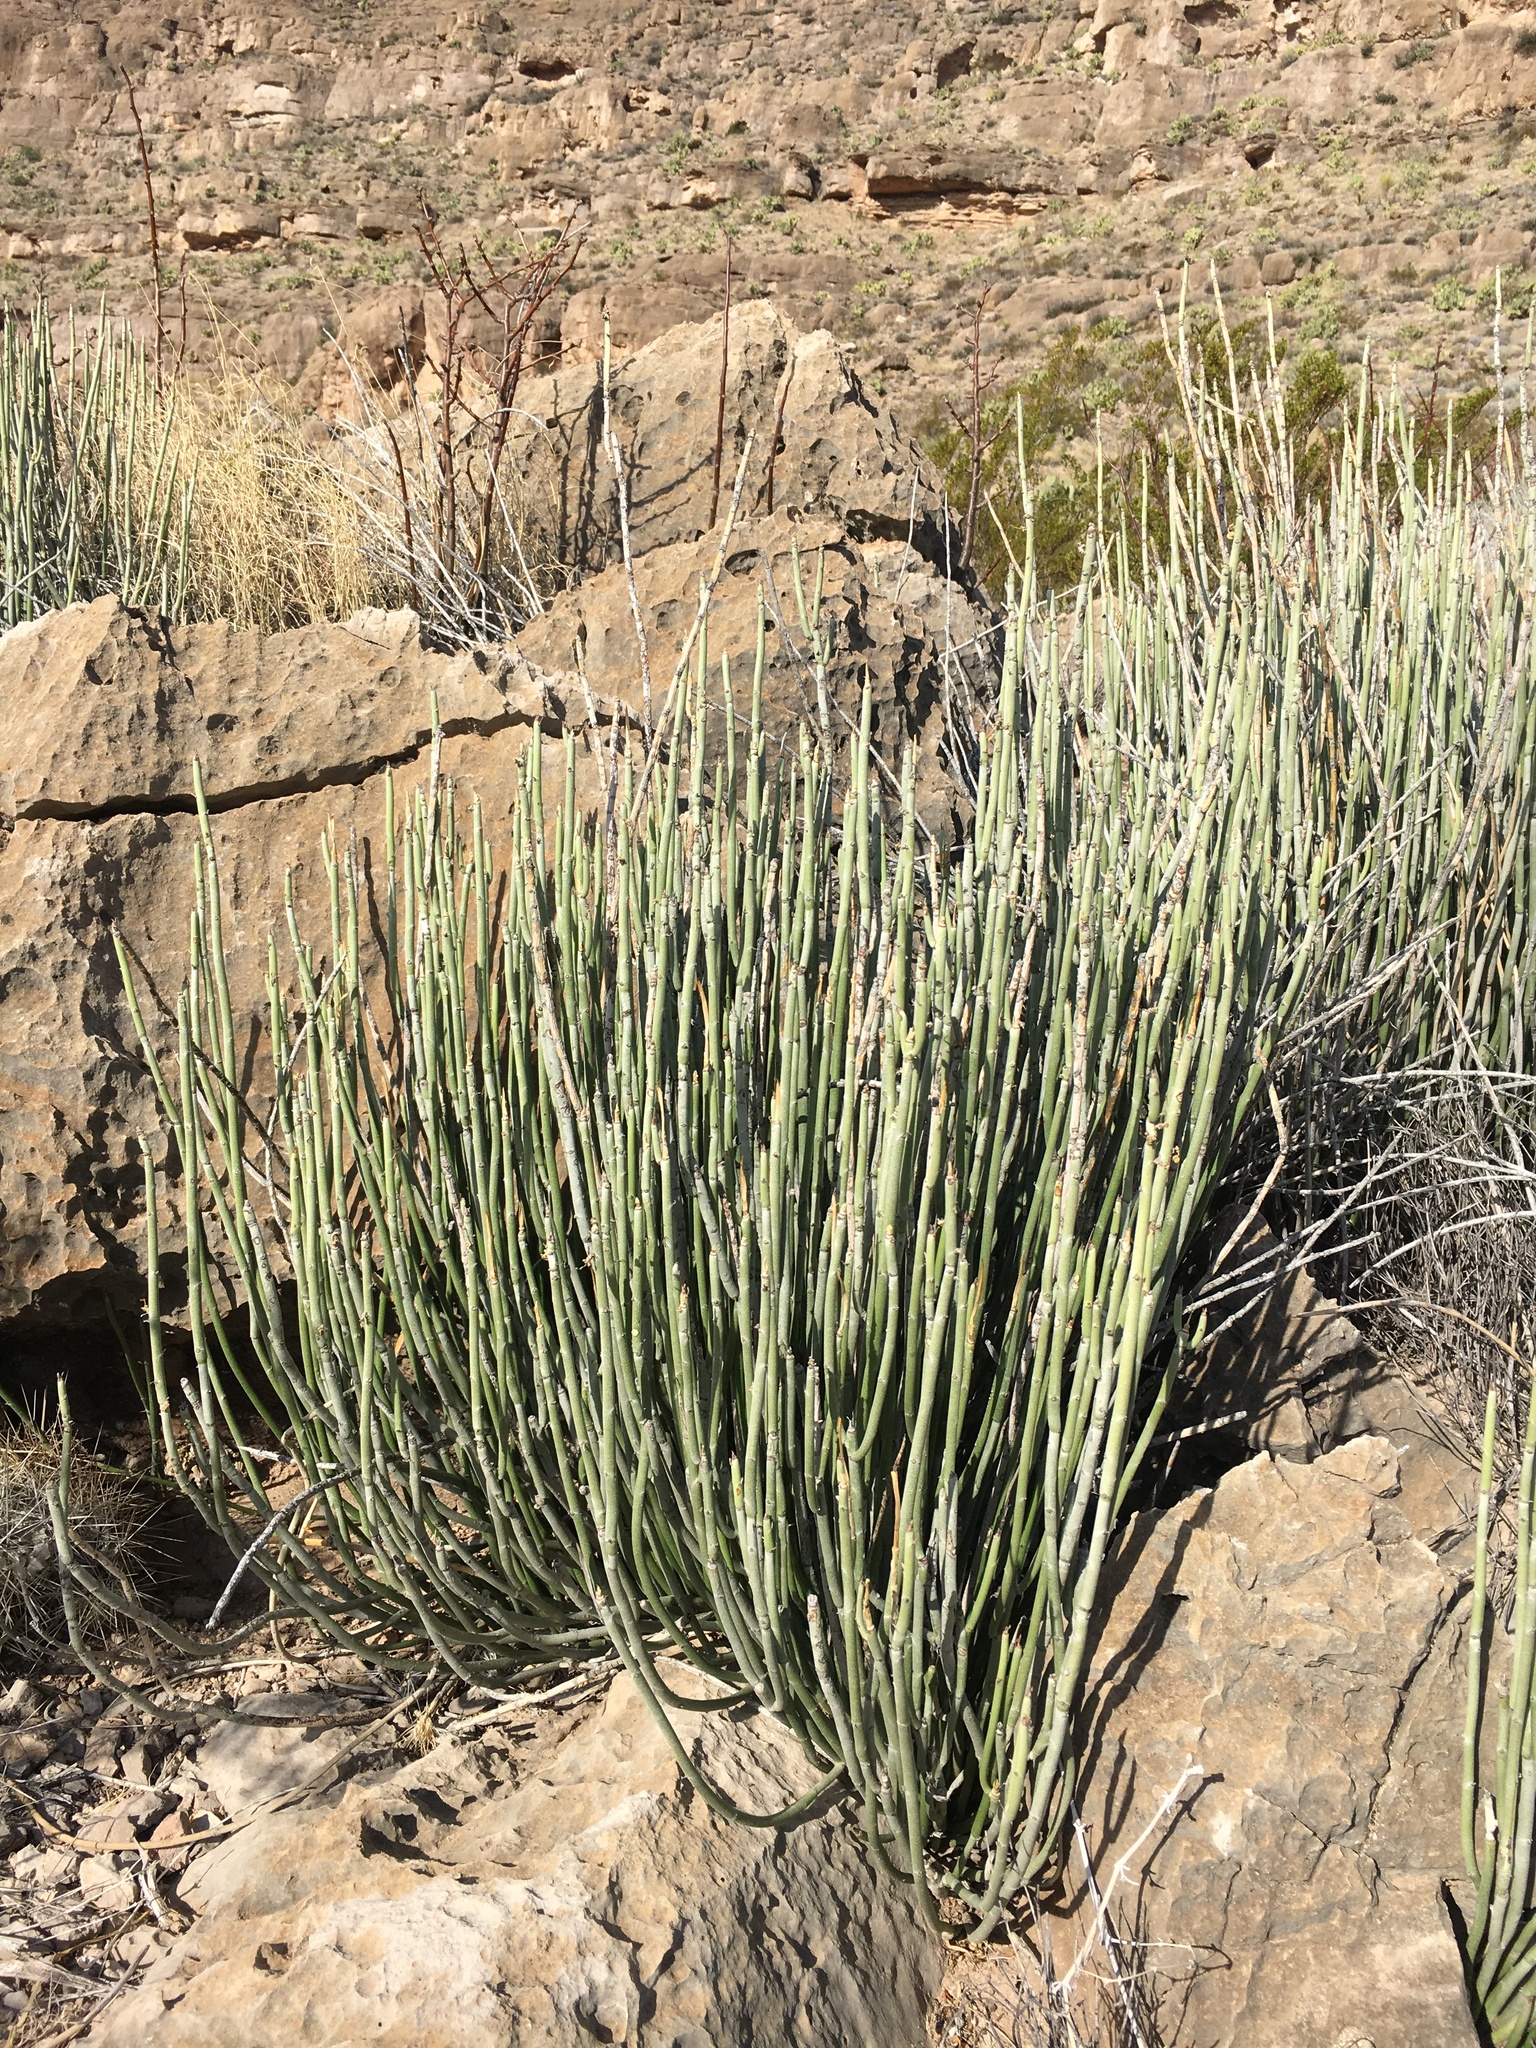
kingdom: Plantae
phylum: Tracheophyta
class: Magnoliopsida
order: Malpighiales
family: Euphorbiaceae
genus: Euphorbia
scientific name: Euphorbia antisyphilitica
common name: Candelilla
